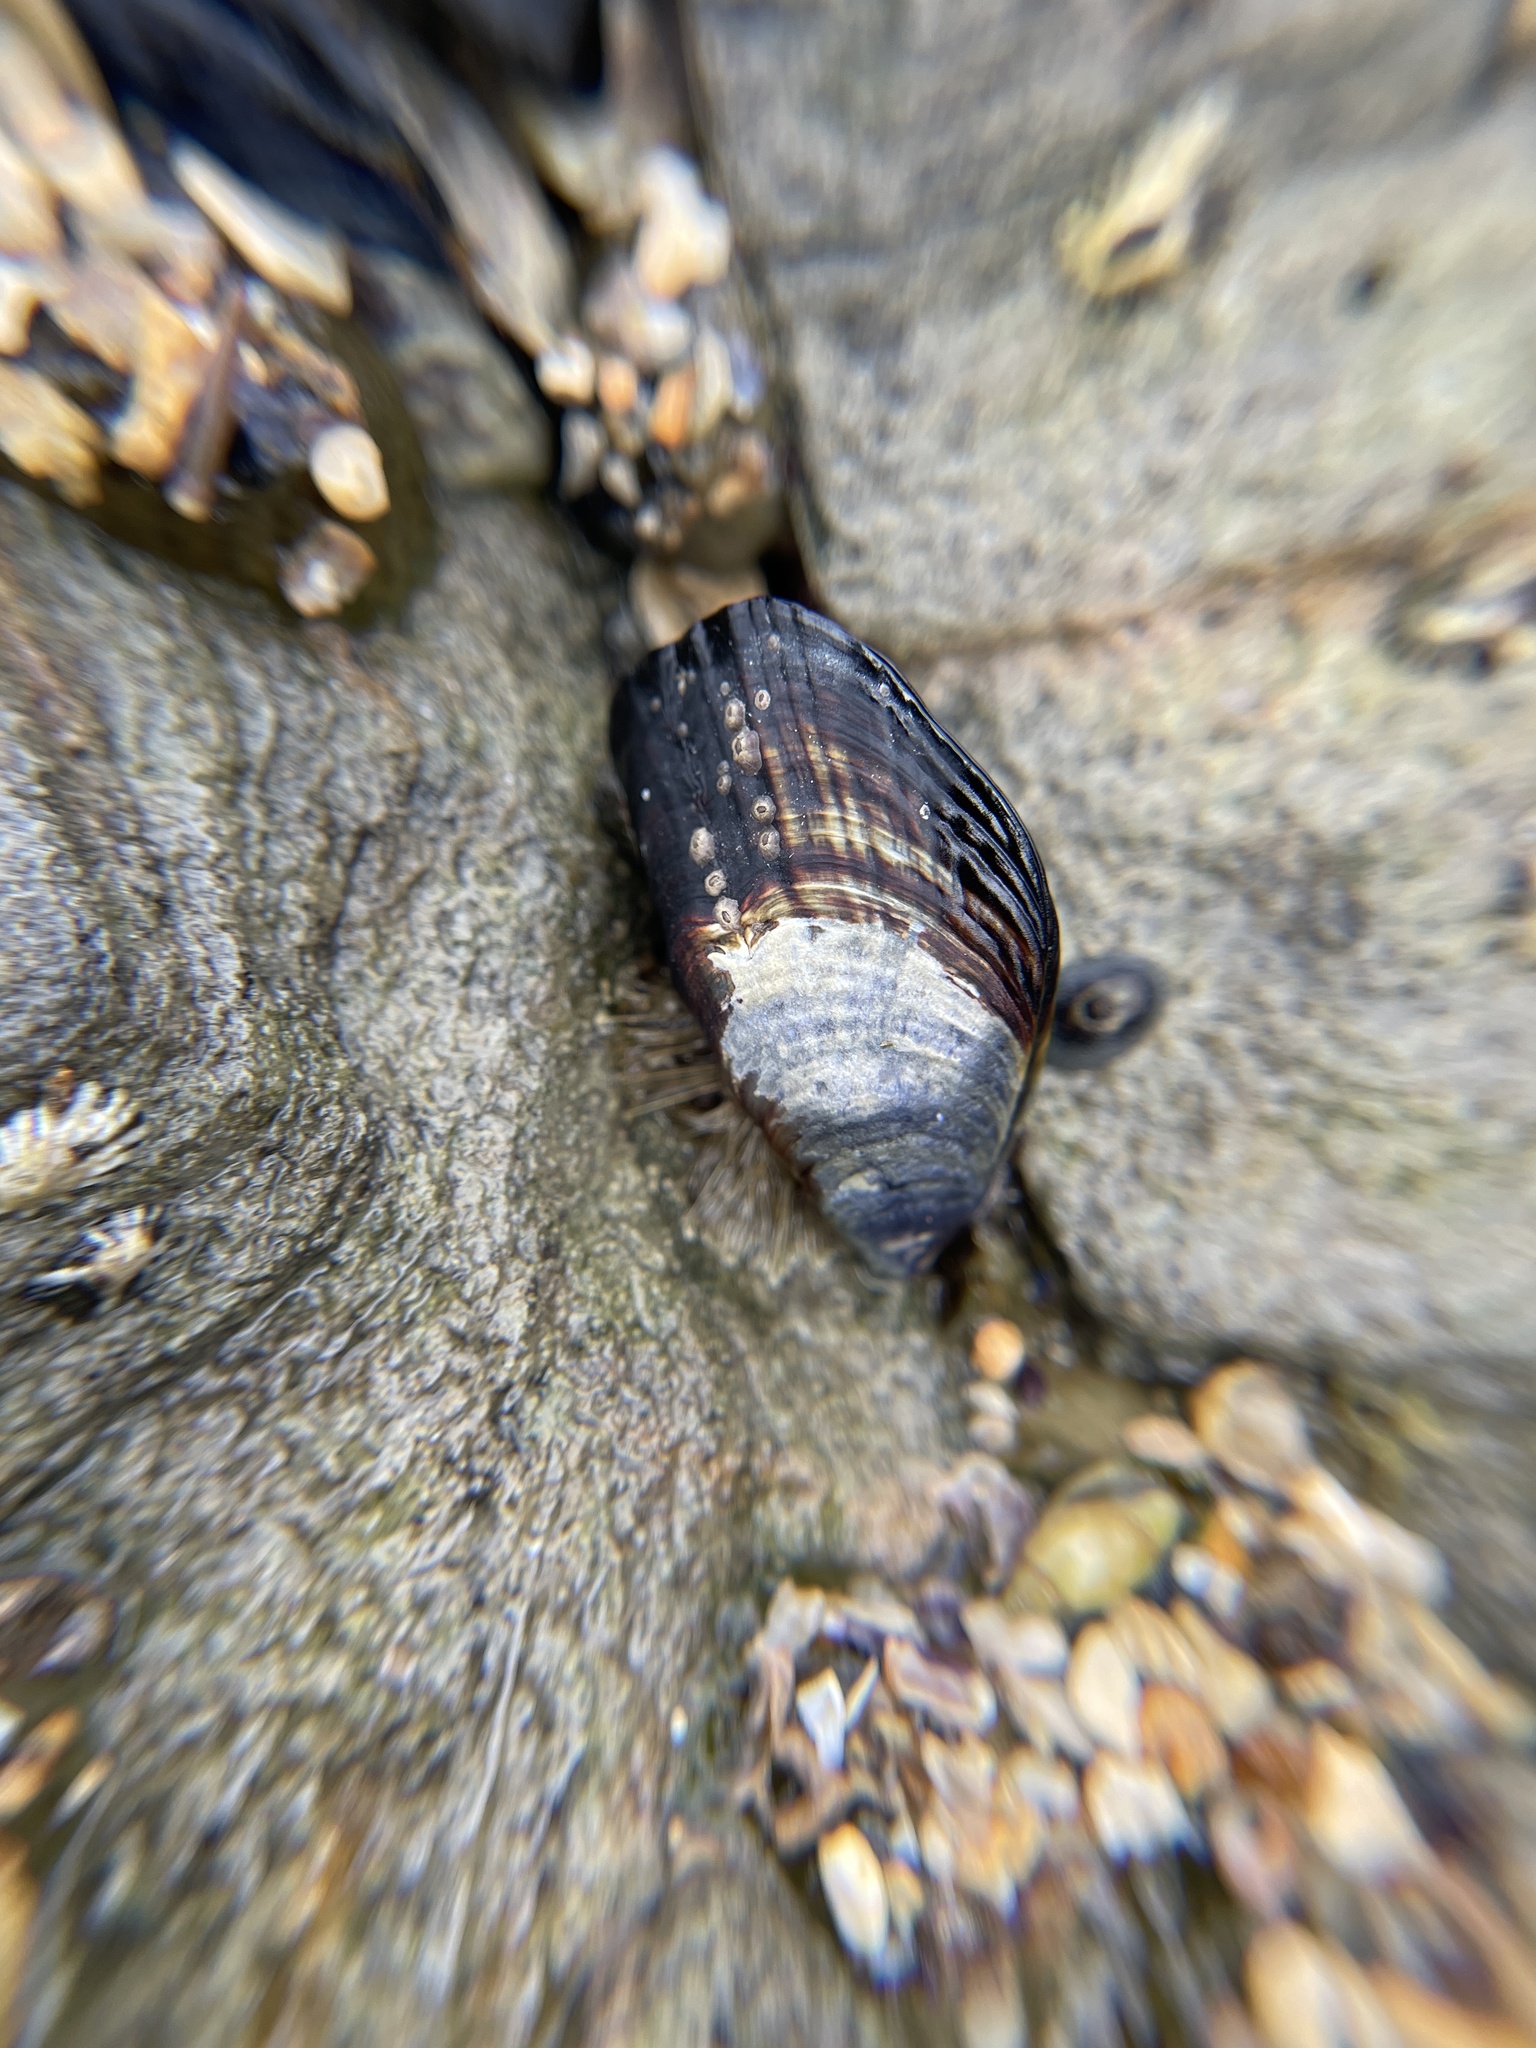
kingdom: Animalia
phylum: Mollusca
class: Bivalvia
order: Mytilida
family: Mytilidae
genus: Mytilus
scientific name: Mytilus californianus
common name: California mussel
